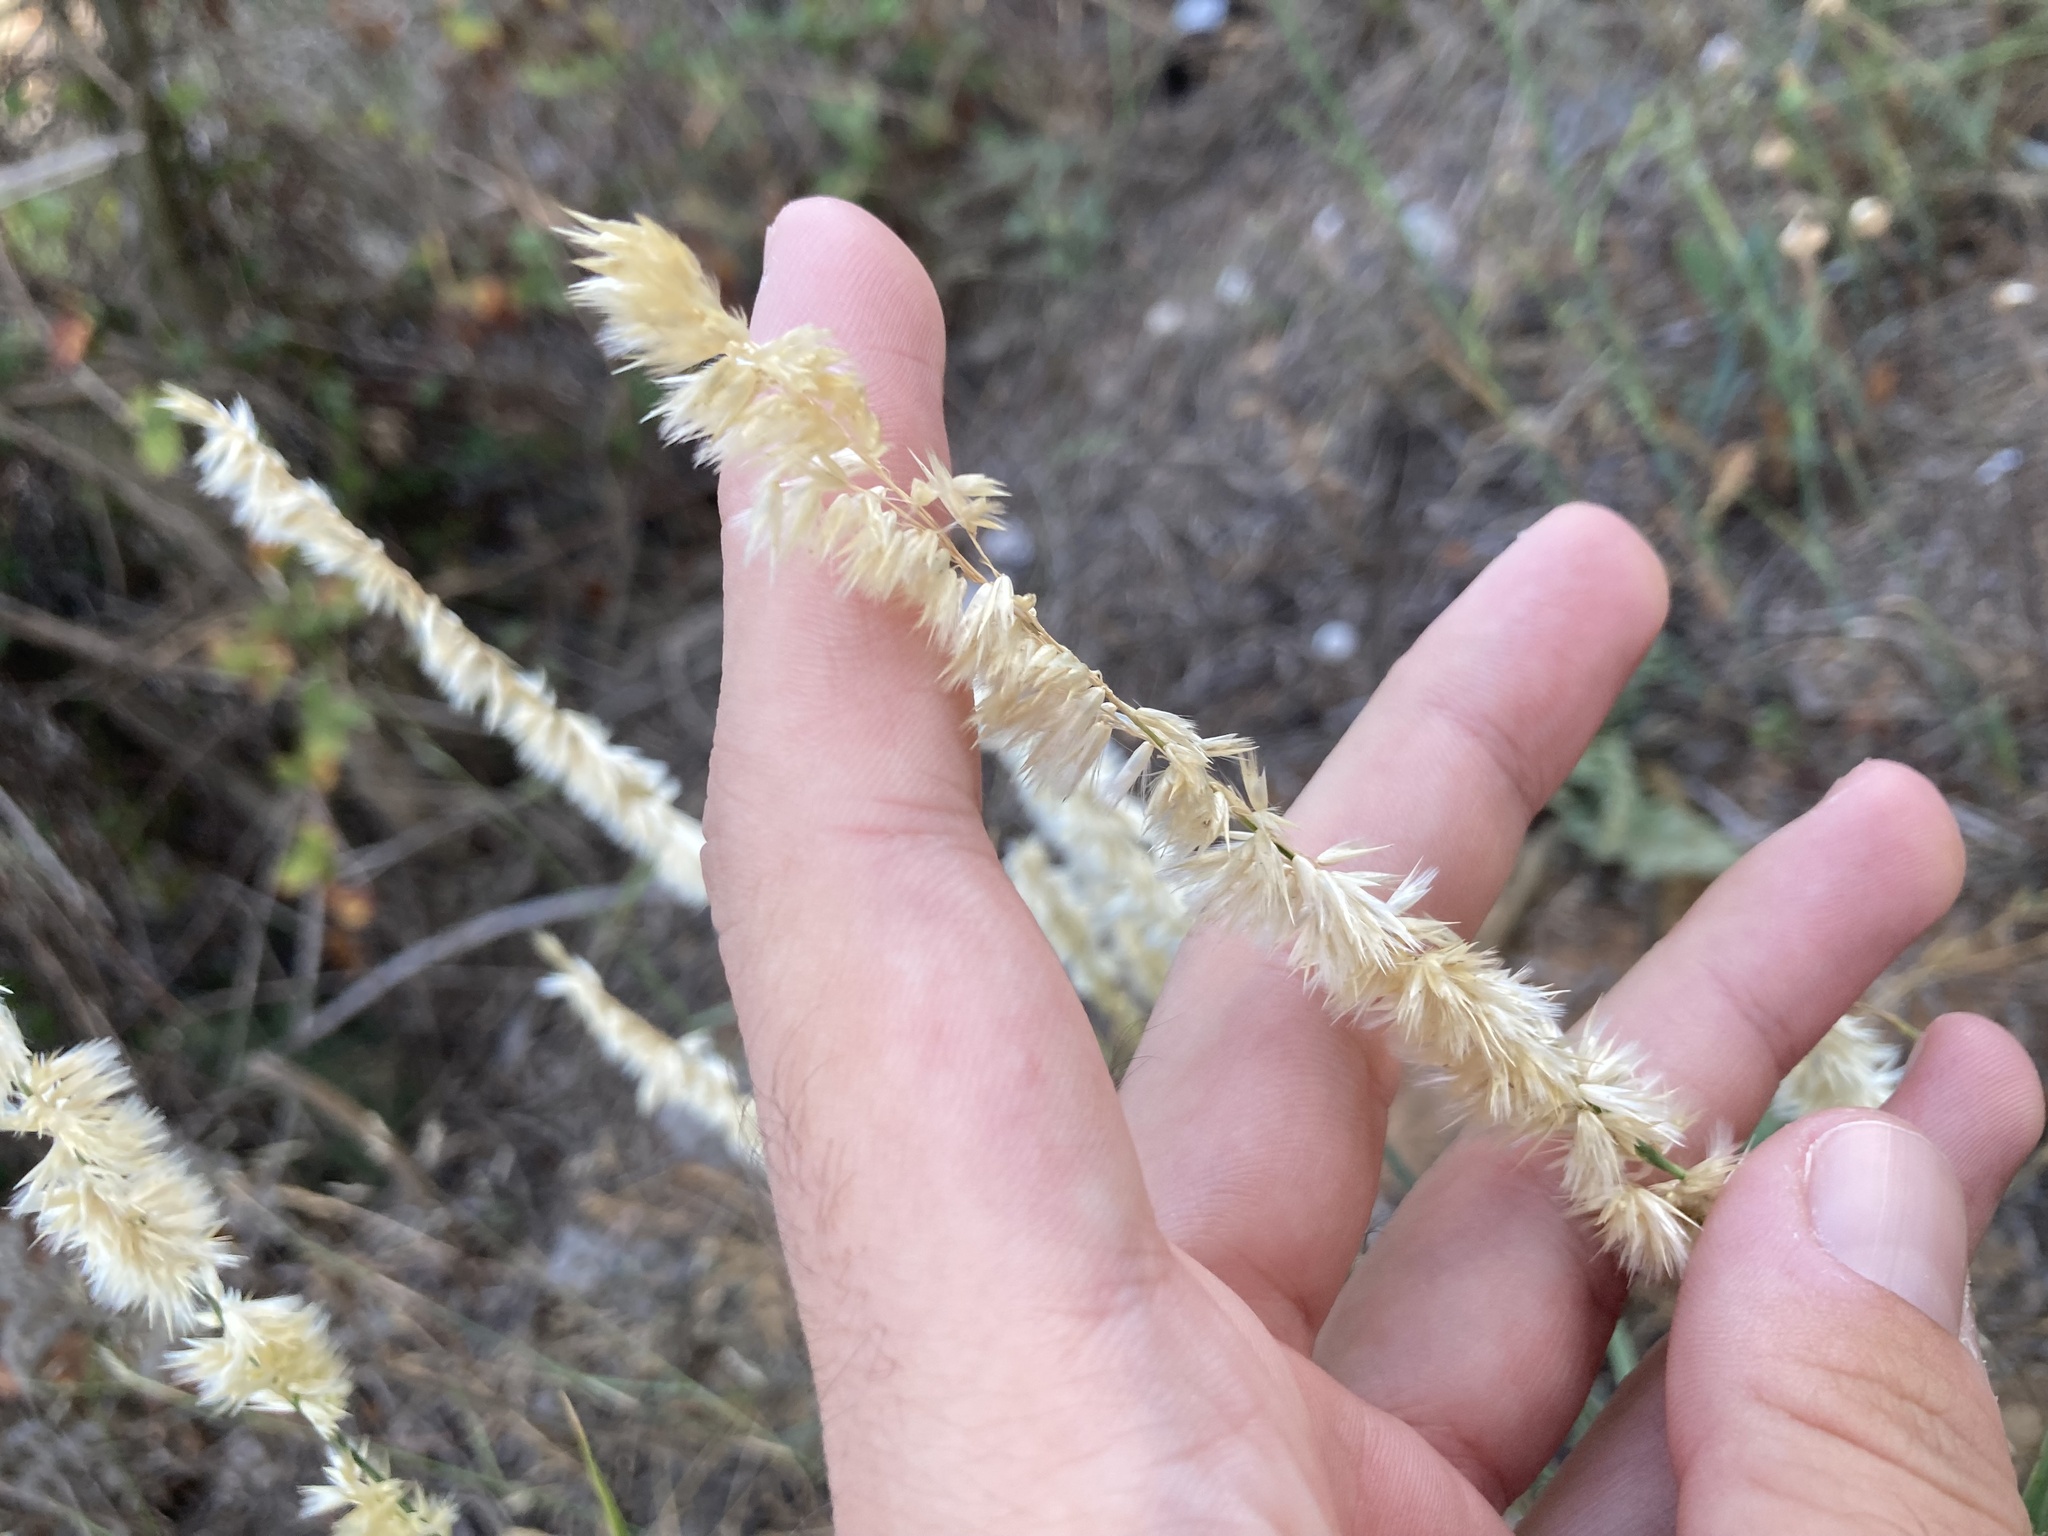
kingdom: Plantae
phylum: Tracheophyta
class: Liliopsida
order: Poales
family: Poaceae
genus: Melica
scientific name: Melica ciliata
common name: Hairy melicgrass
